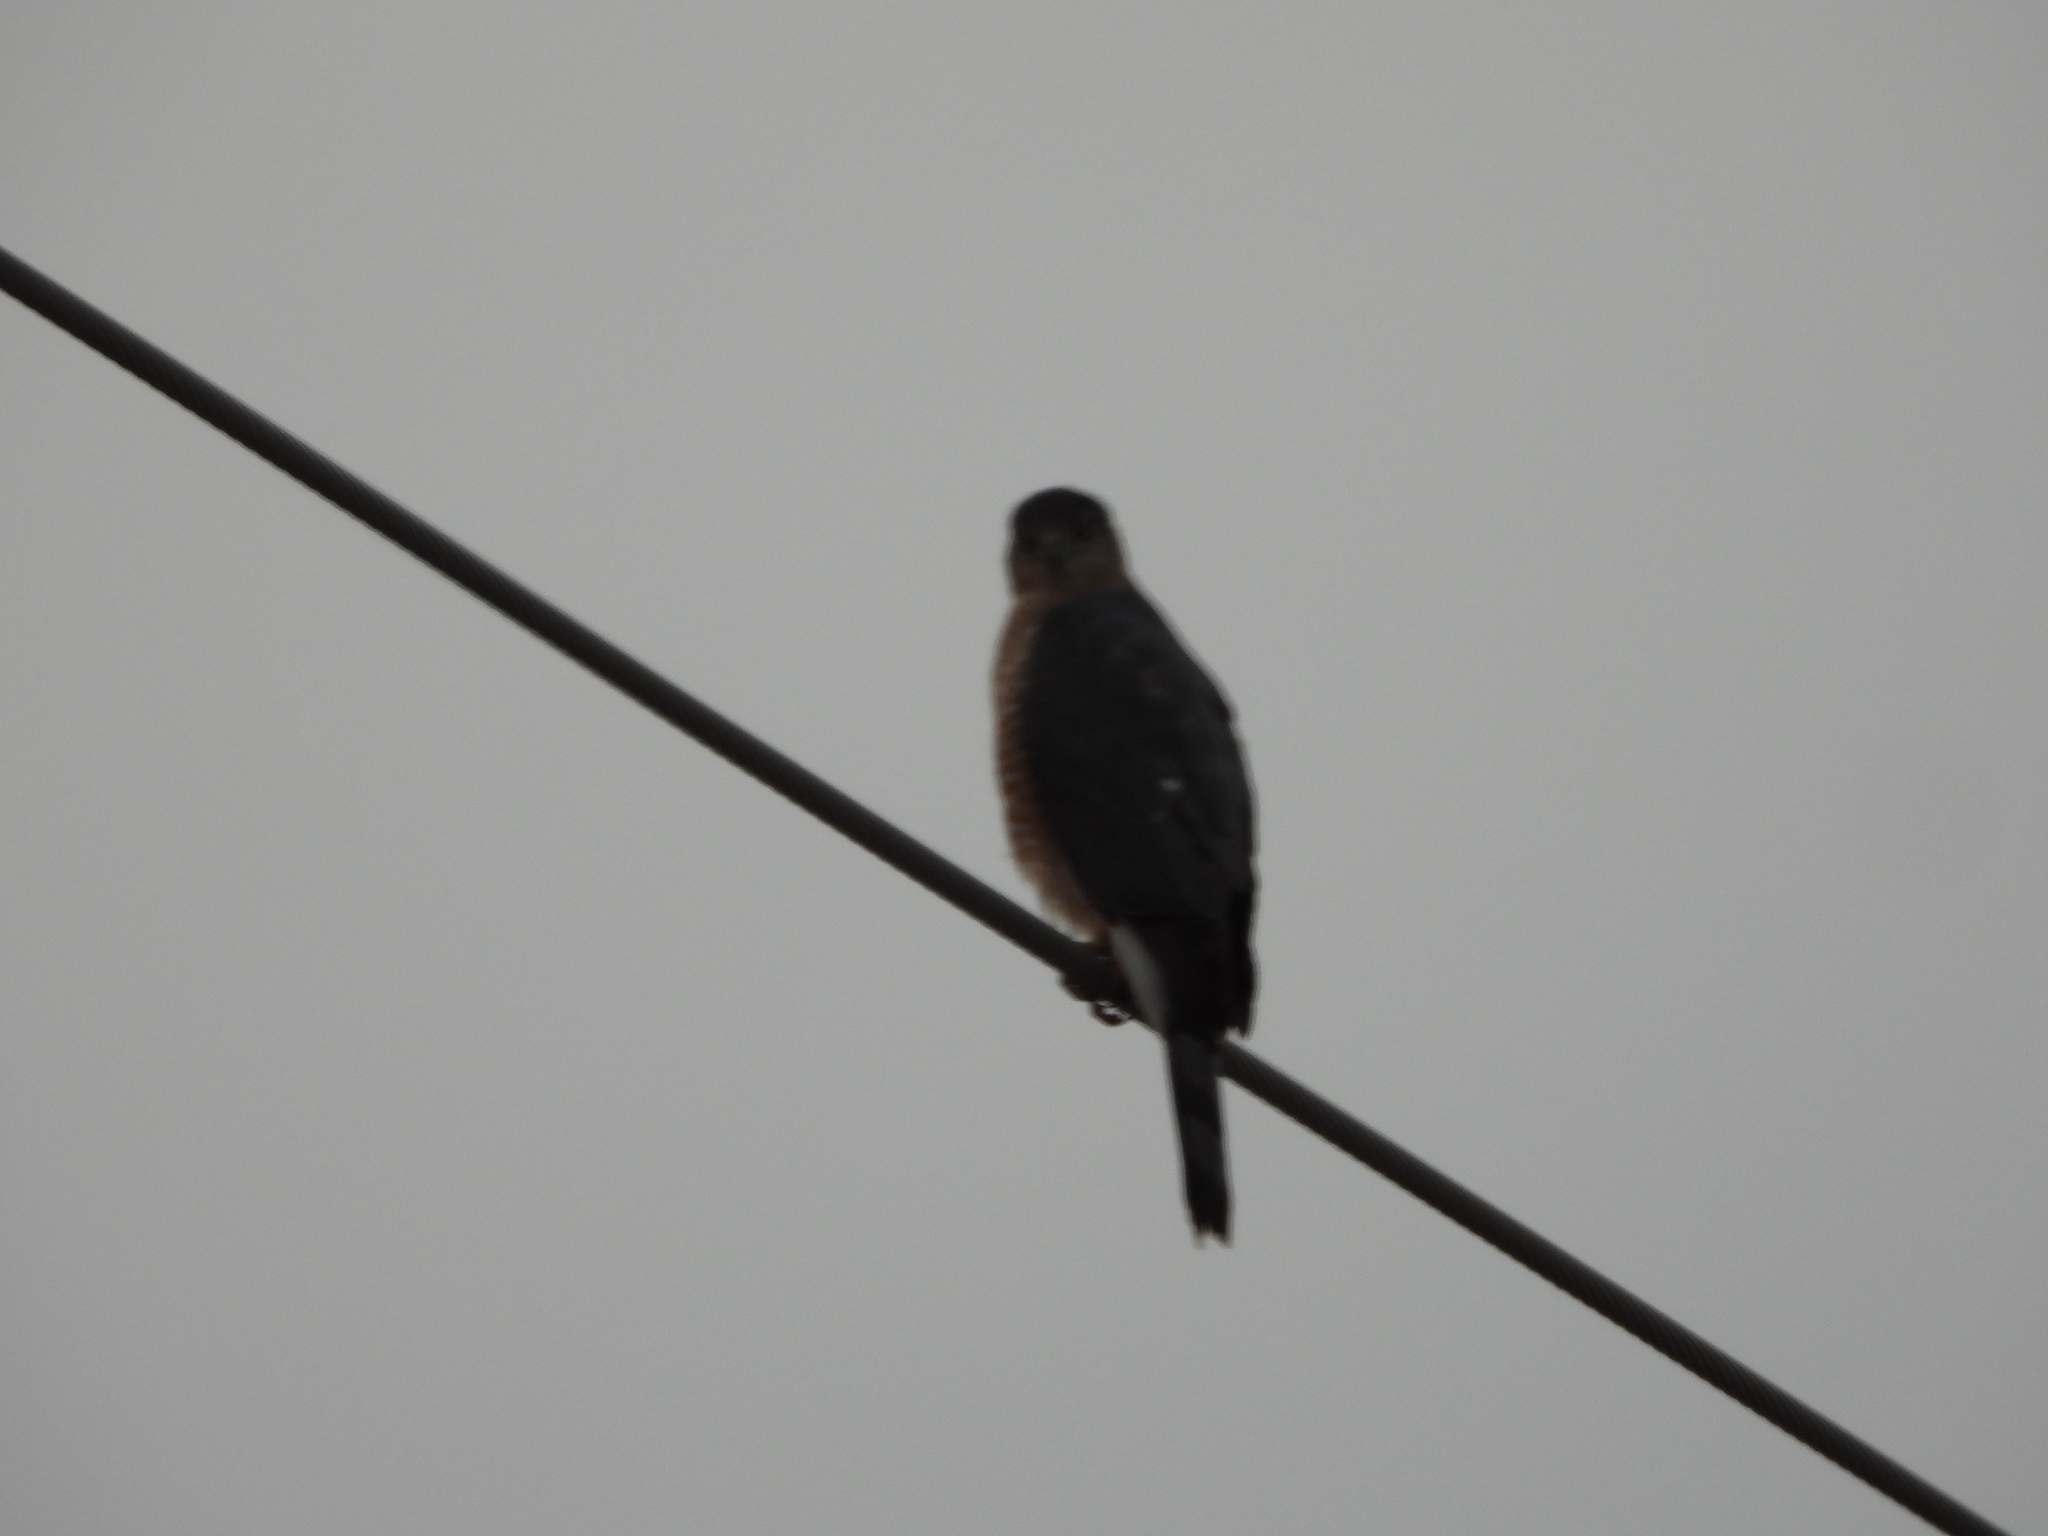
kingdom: Animalia
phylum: Chordata
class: Aves
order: Accipitriformes
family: Accipitridae
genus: Accipiter
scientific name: Accipiter cooperii
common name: Cooper's hawk
